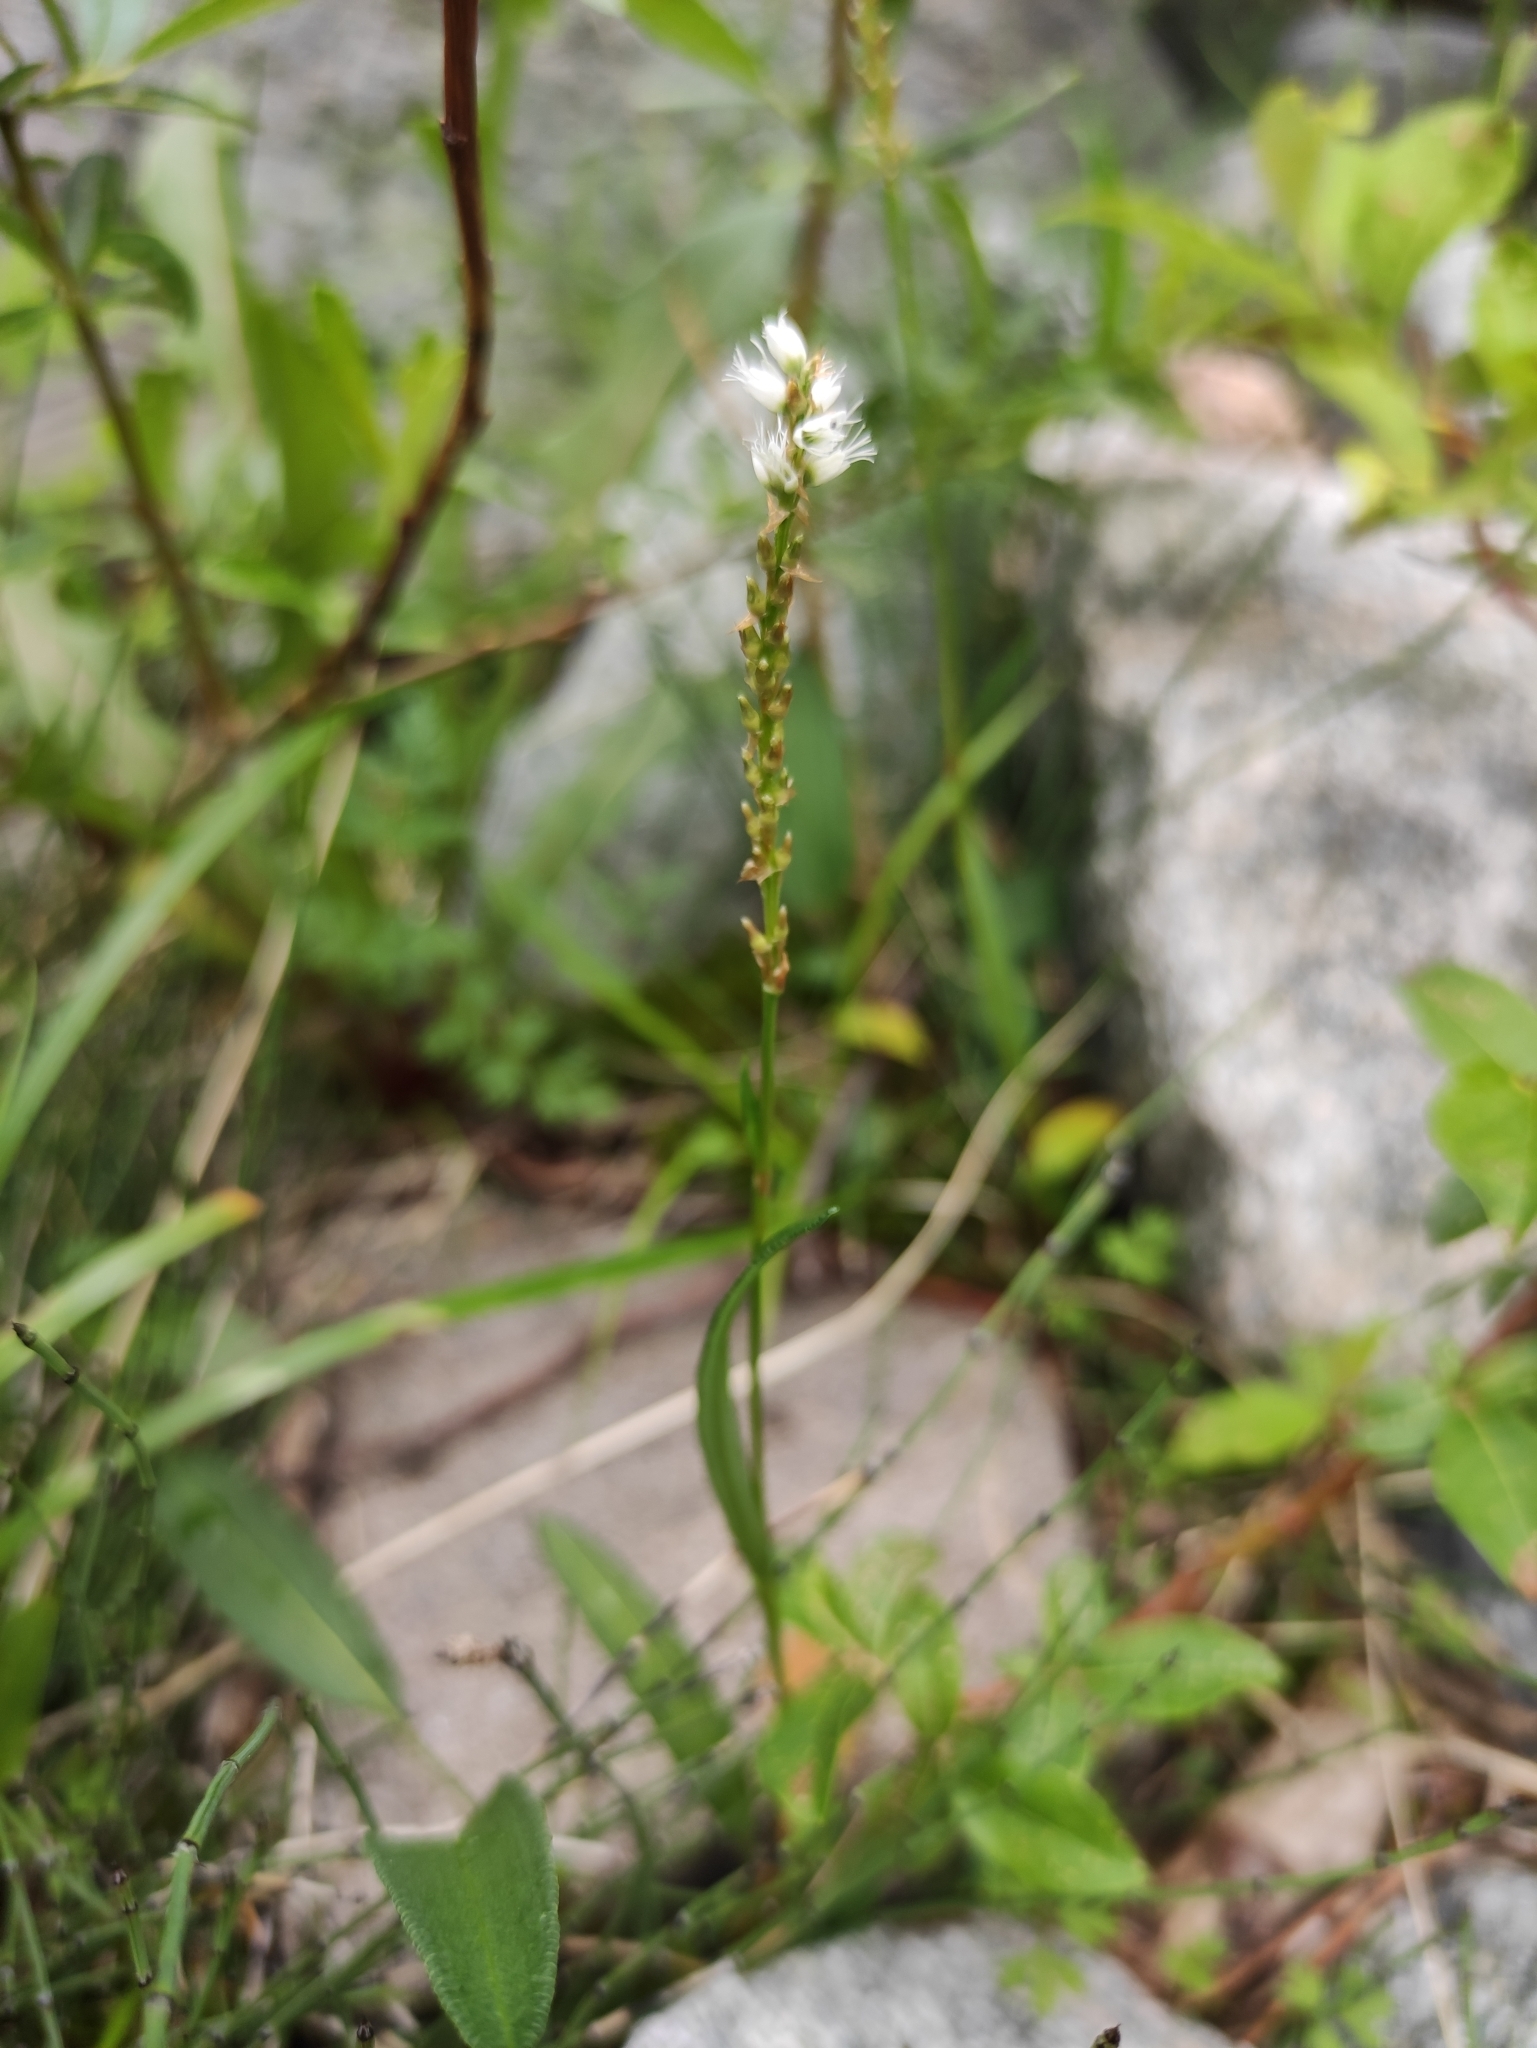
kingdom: Plantae
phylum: Tracheophyta
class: Magnoliopsida
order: Caryophyllales
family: Polygonaceae
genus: Bistorta
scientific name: Bistorta vivipara
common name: Alpine bistort
